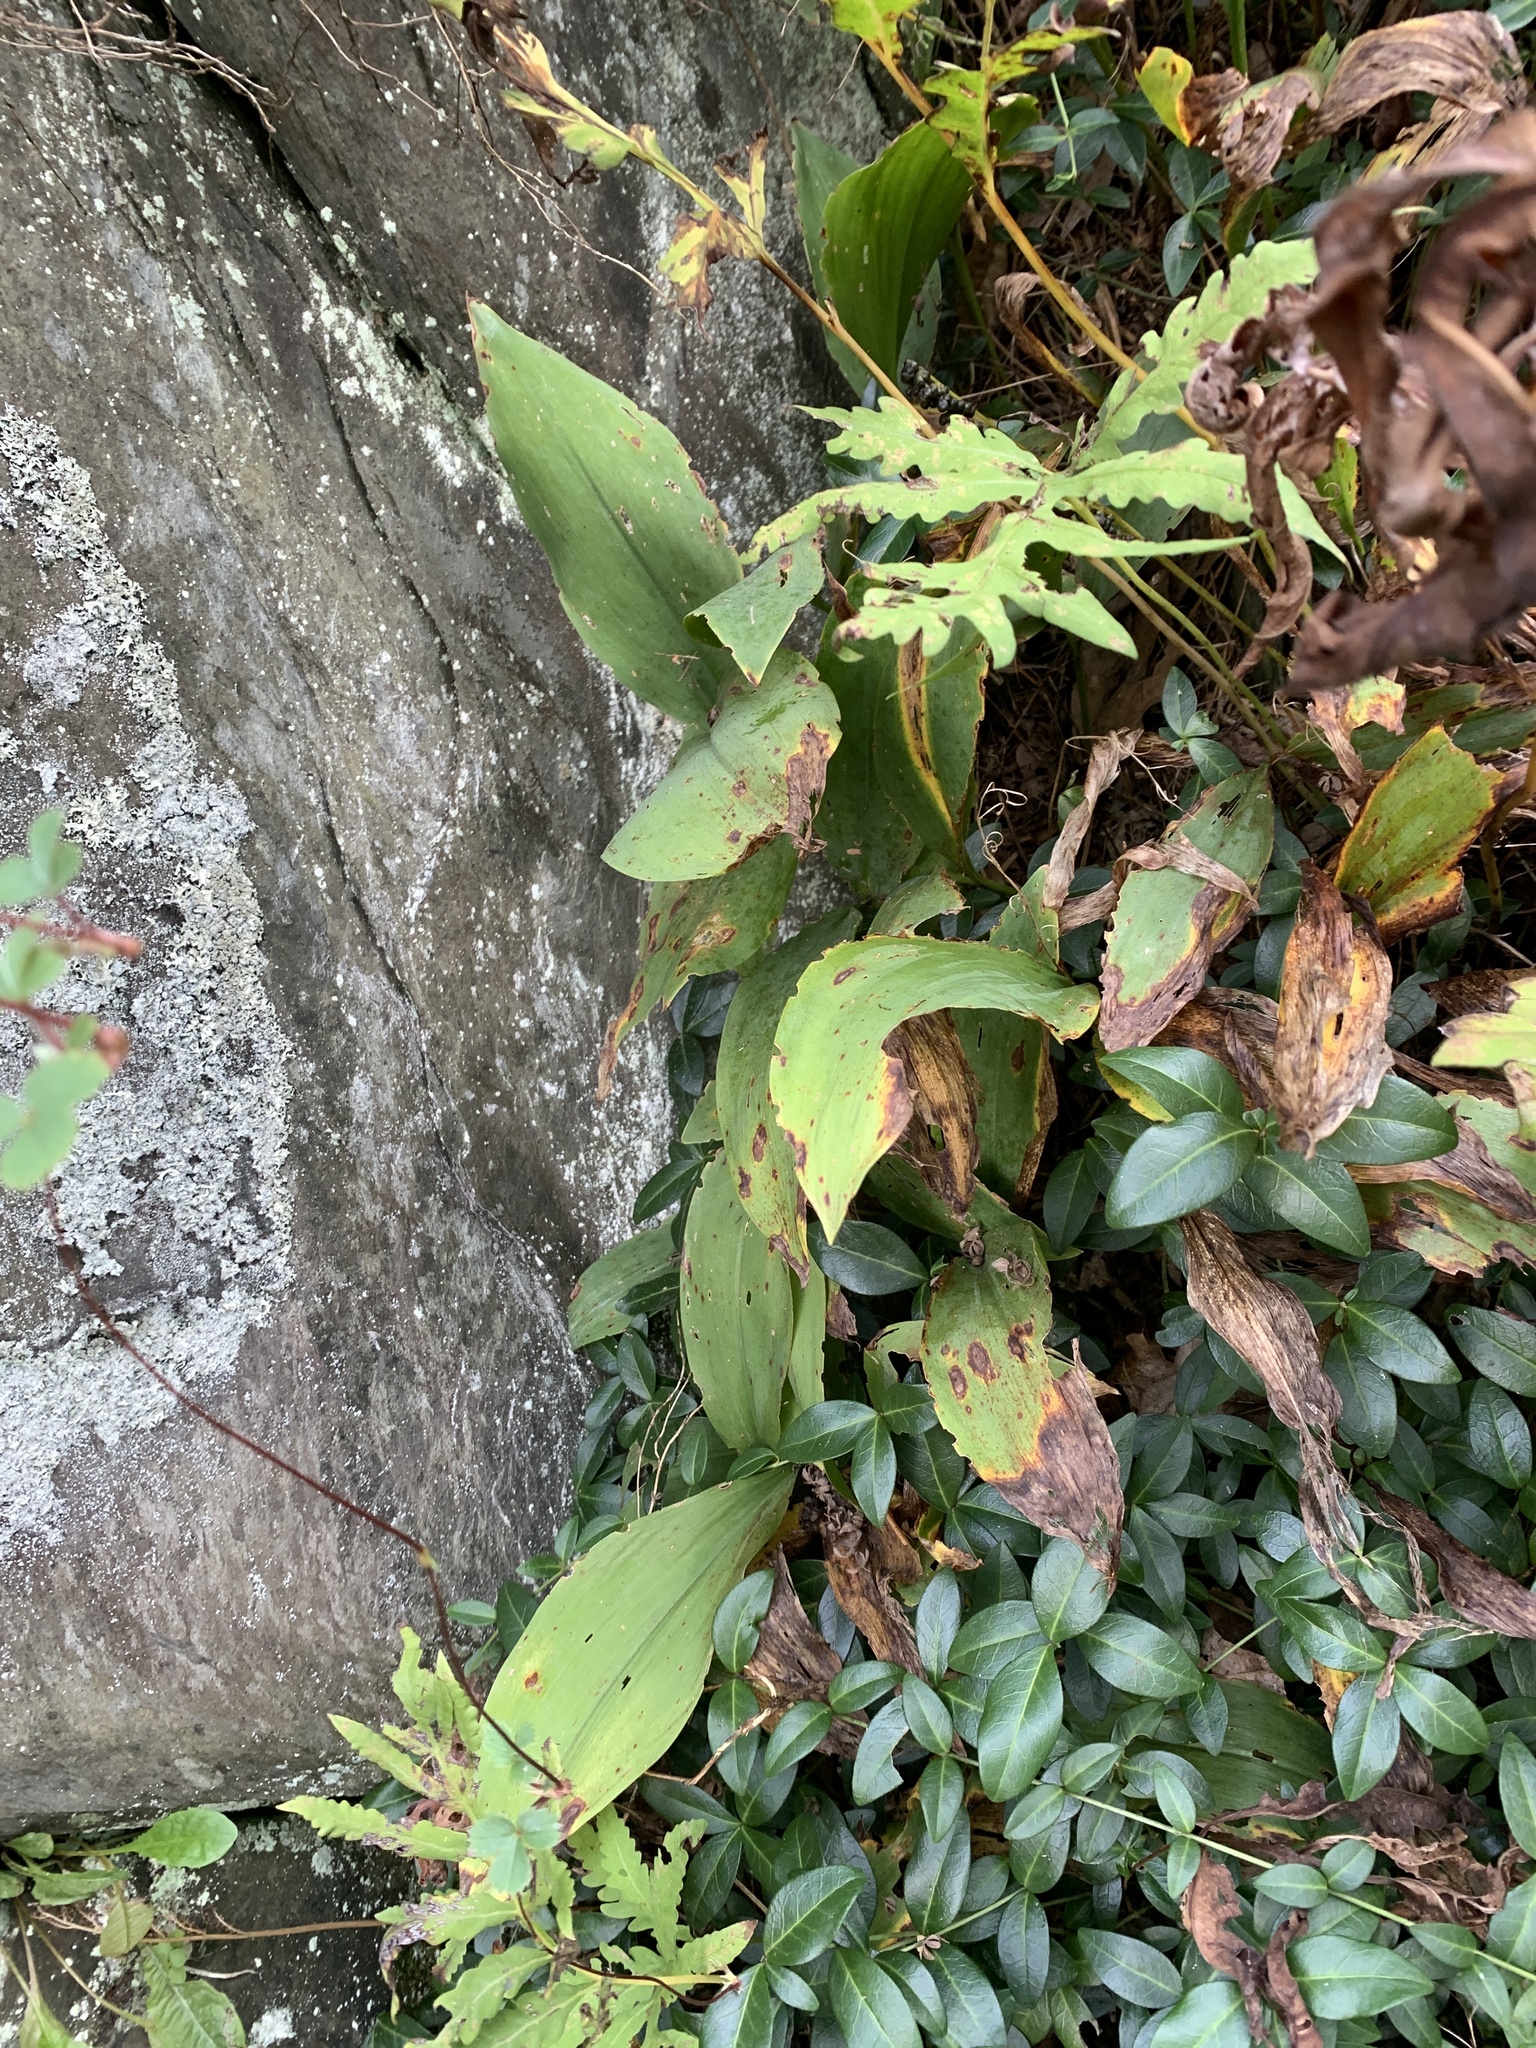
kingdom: Plantae
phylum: Tracheophyta
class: Liliopsida
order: Asparagales
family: Asparagaceae
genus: Convallaria
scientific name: Convallaria majalis
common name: Lily-of-the-valley
